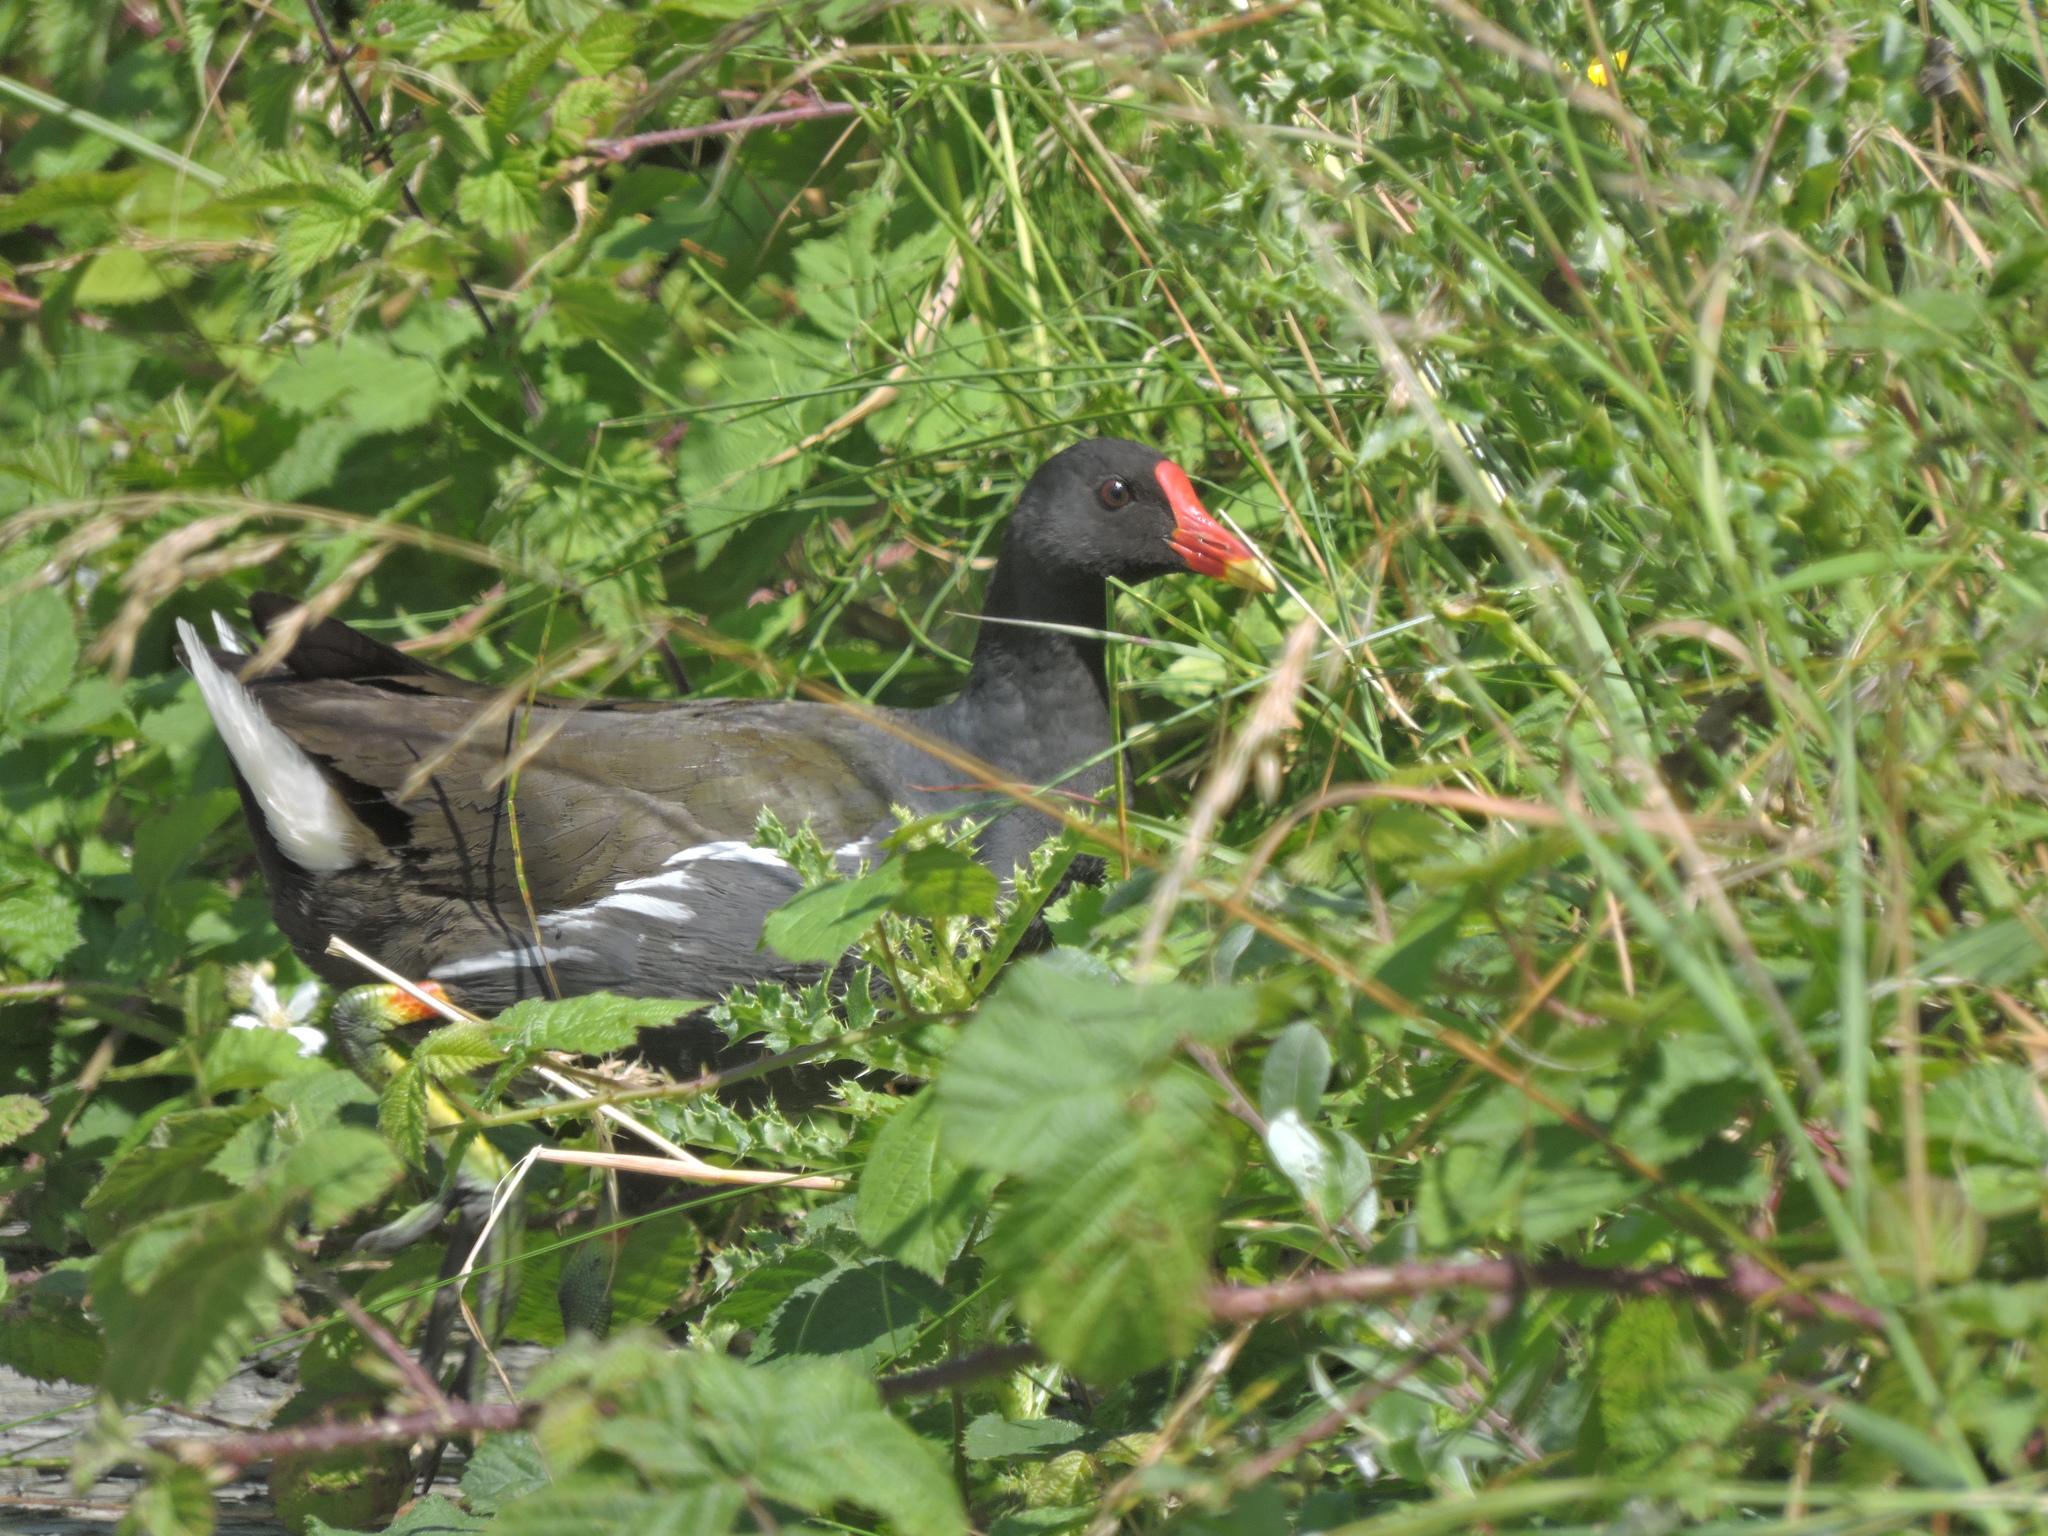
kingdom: Animalia
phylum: Chordata
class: Aves
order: Gruiformes
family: Rallidae
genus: Gallinula
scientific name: Gallinula chloropus
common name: Common moorhen
